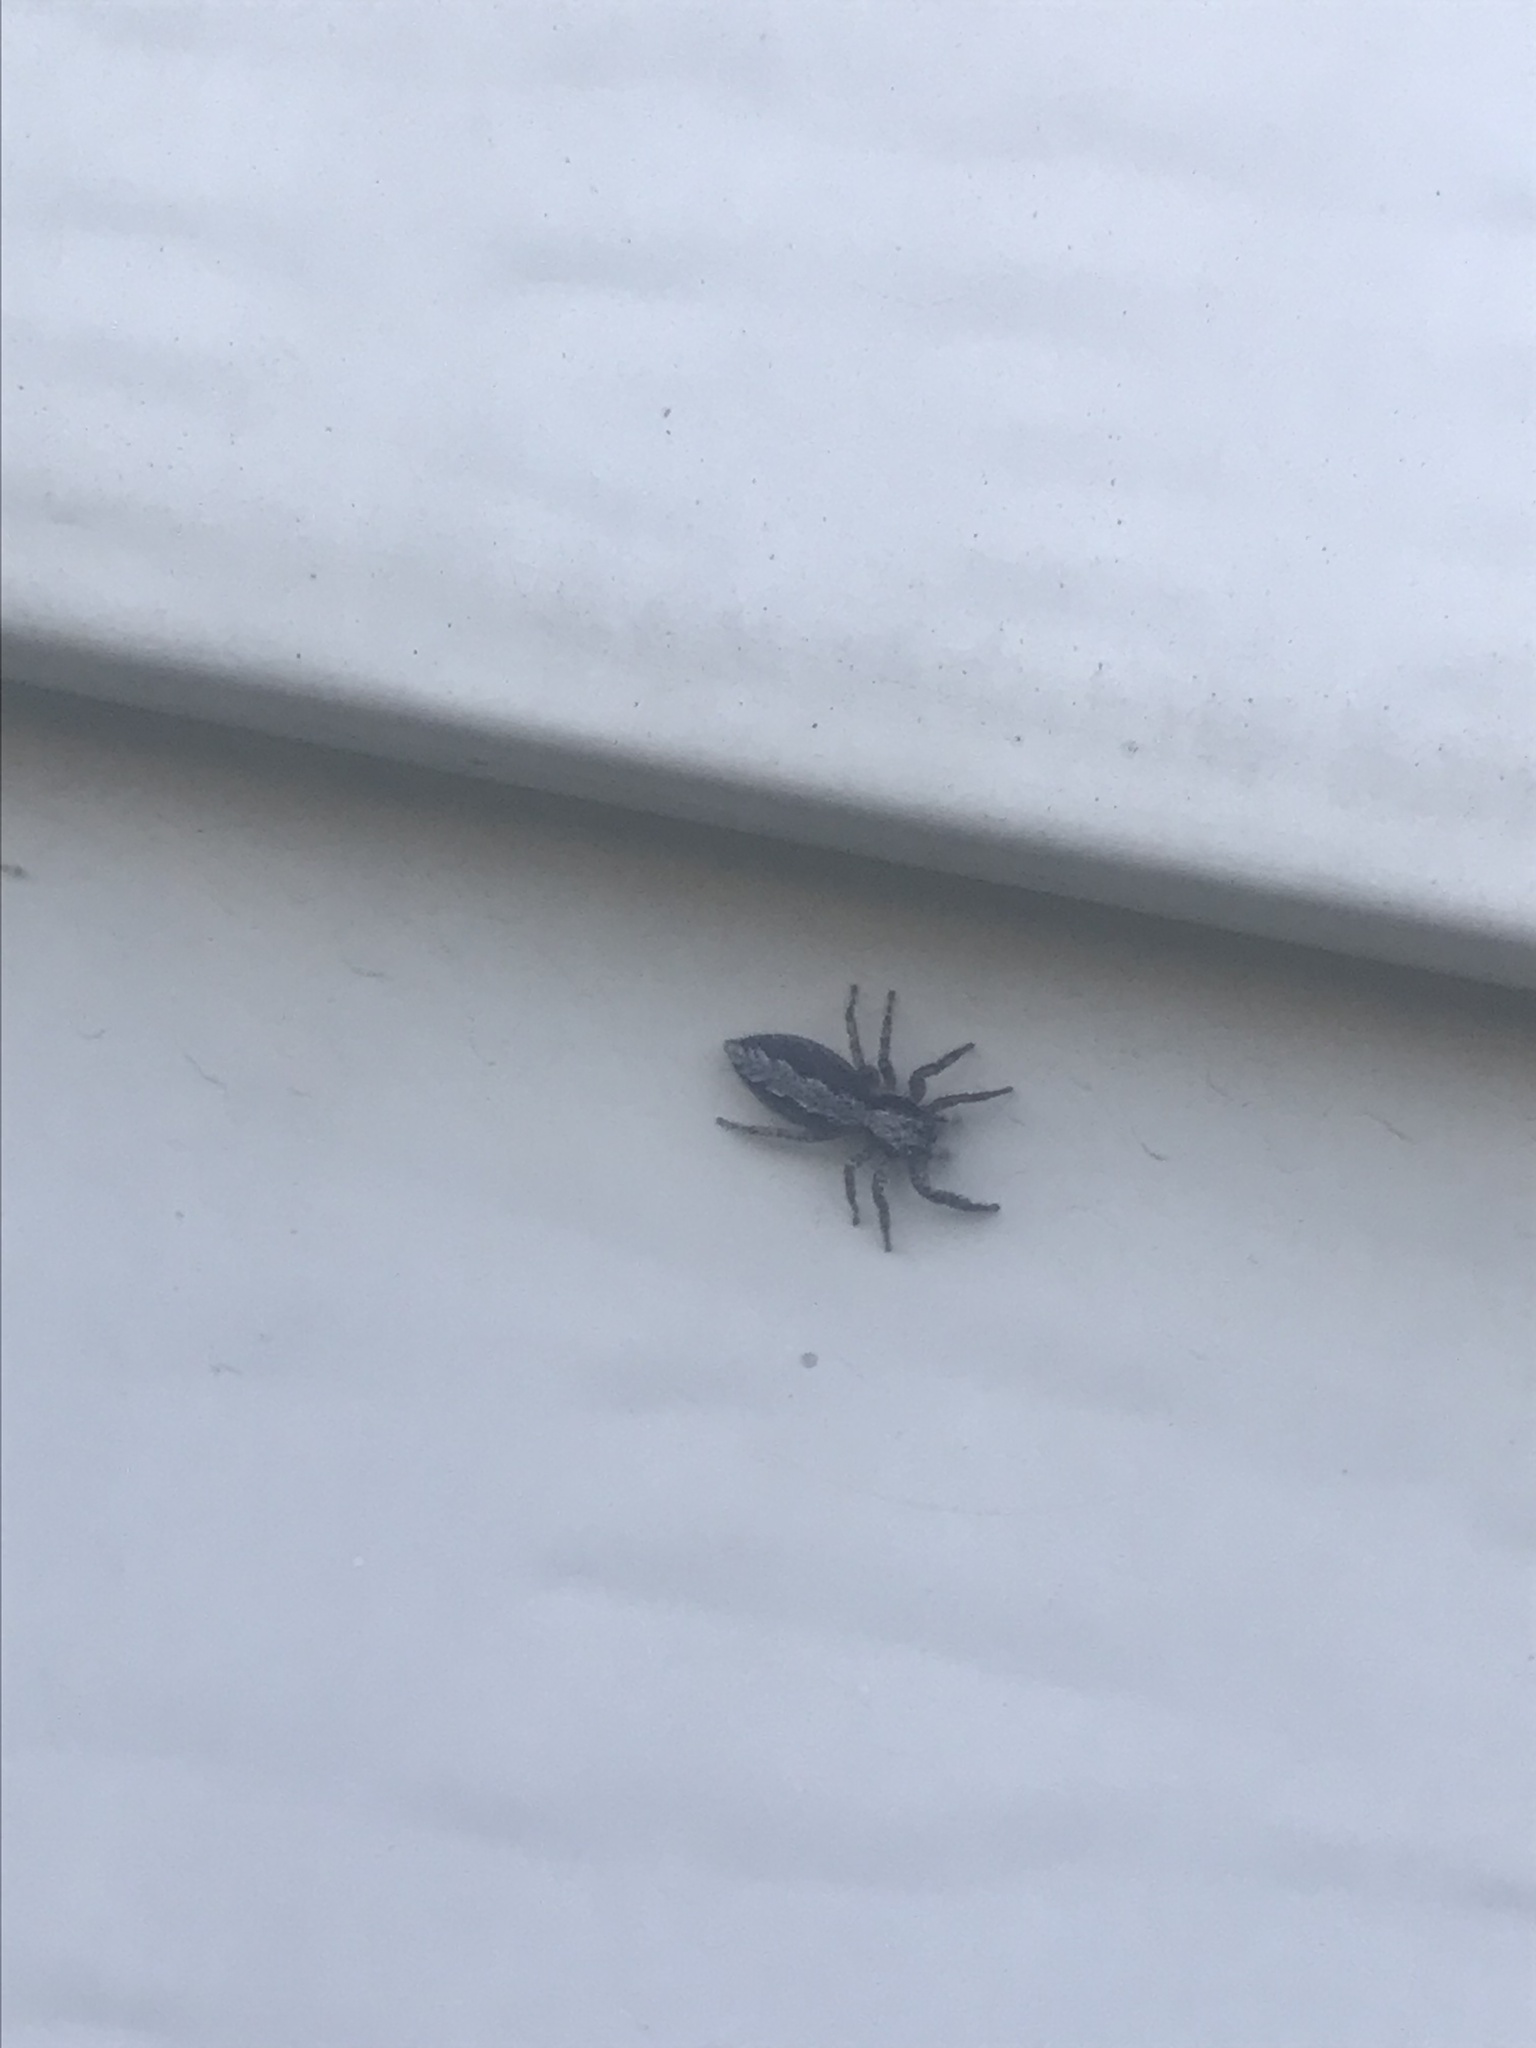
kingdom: Animalia
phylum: Arthropoda
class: Arachnida
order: Araneae
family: Salticidae
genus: Platycryptus
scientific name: Platycryptus californicus
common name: Jumping spiders
